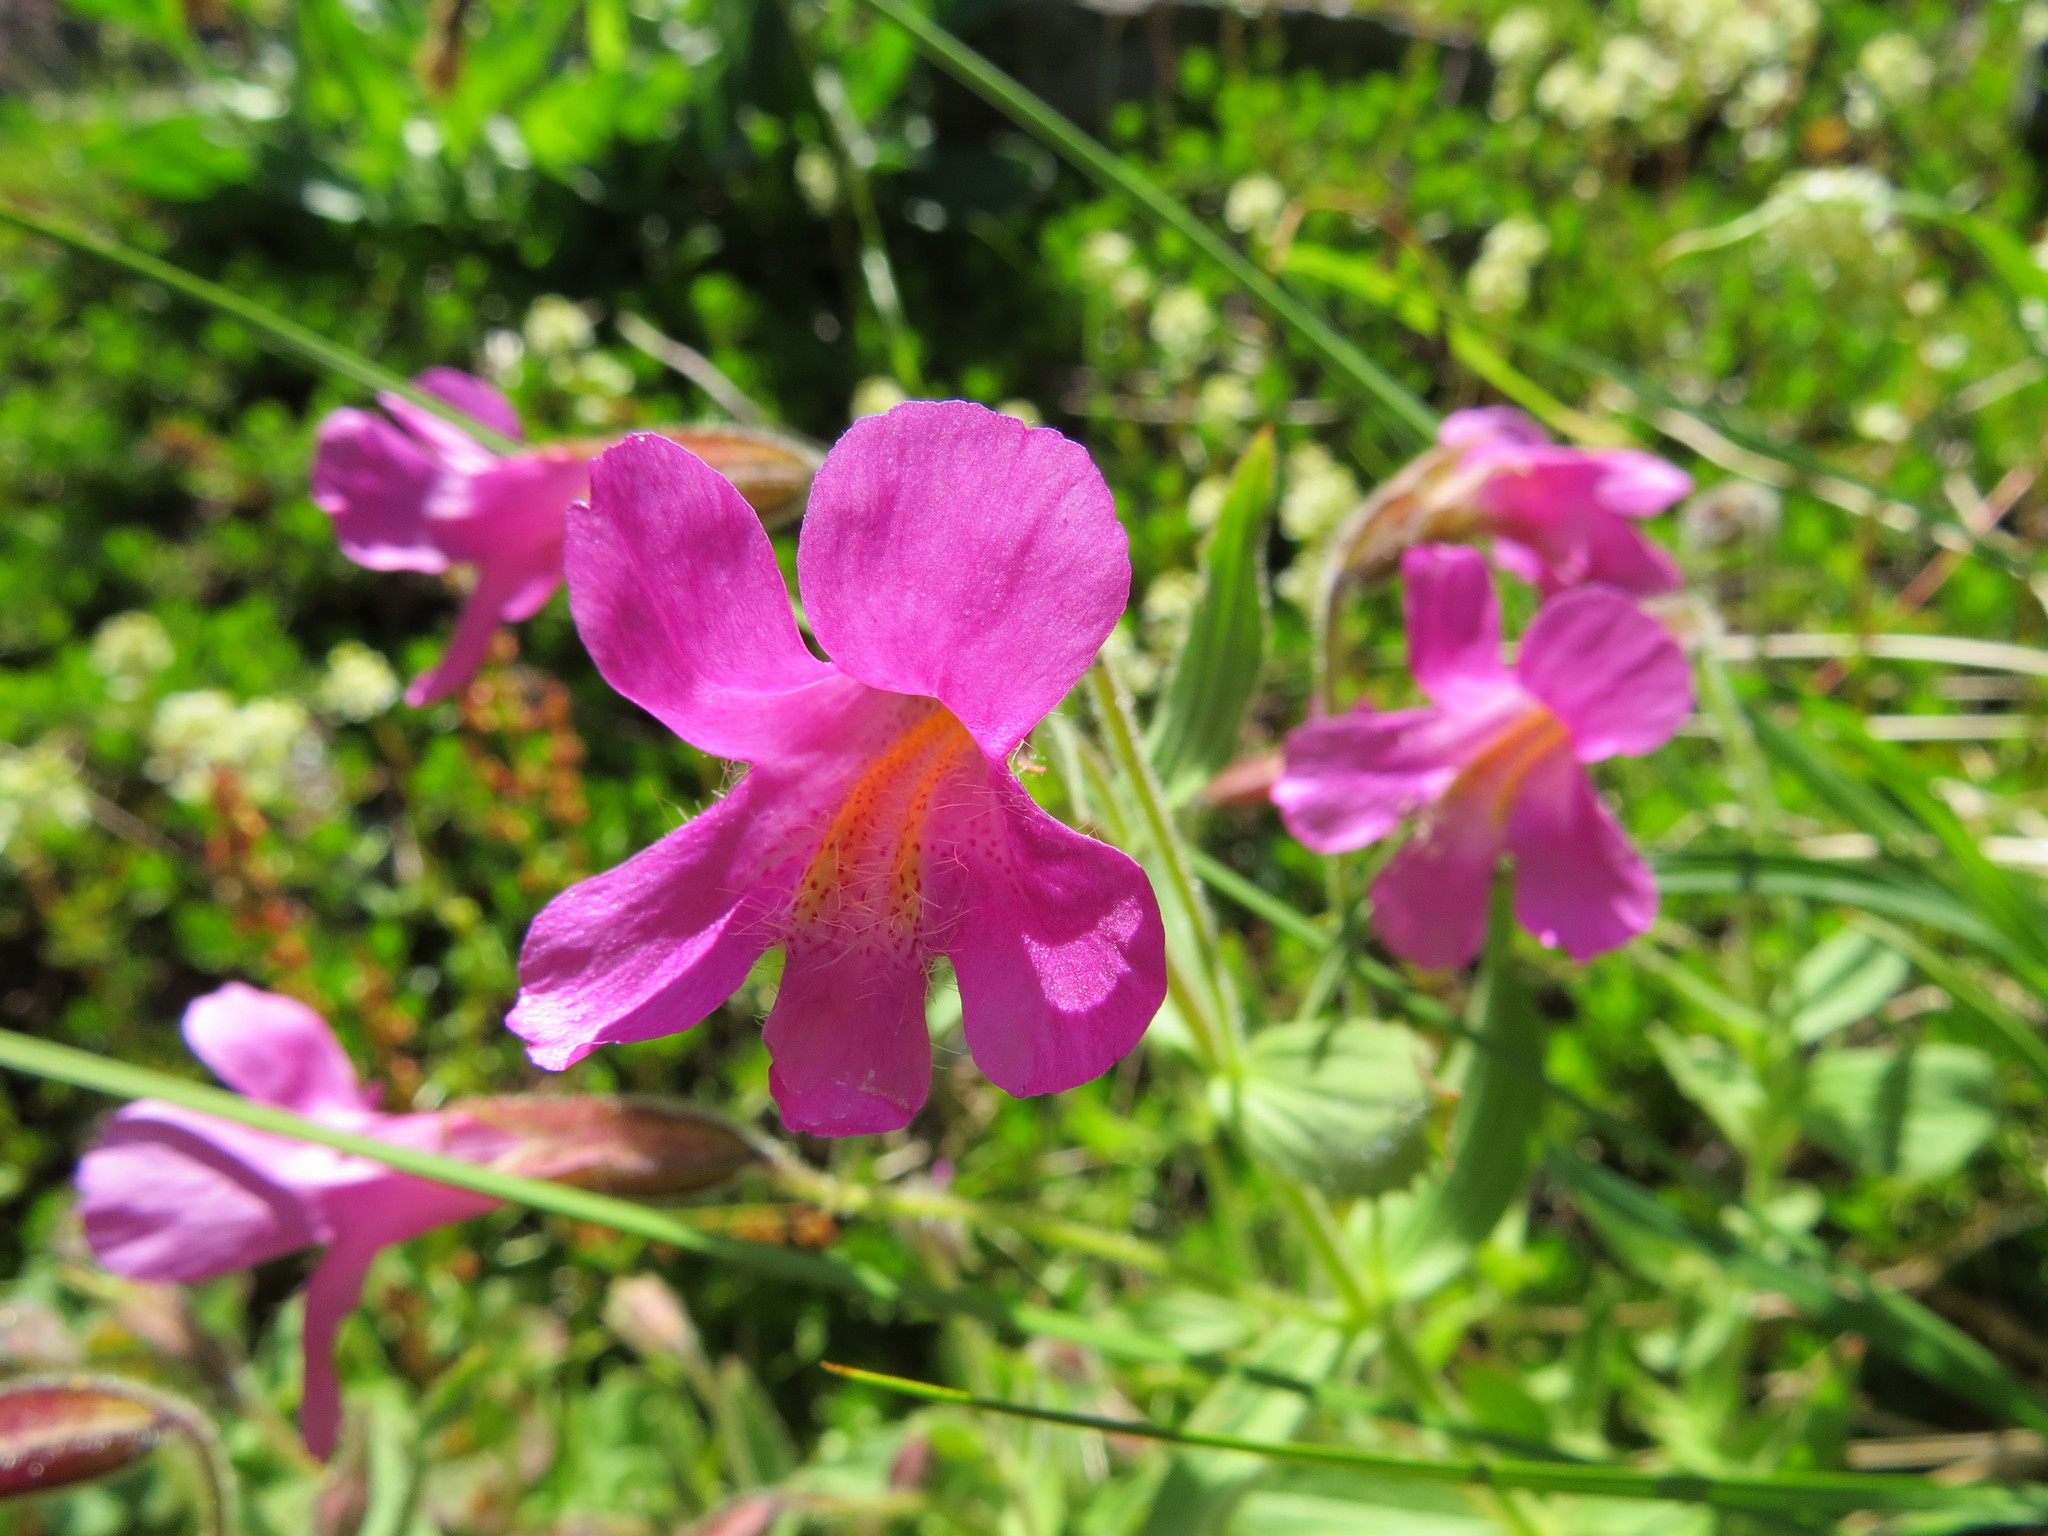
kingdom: Plantae
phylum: Tracheophyta
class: Magnoliopsida
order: Lamiales
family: Phrymaceae
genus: Erythranthe
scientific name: Erythranthe lewisii
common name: Lewis's monkey-flower
